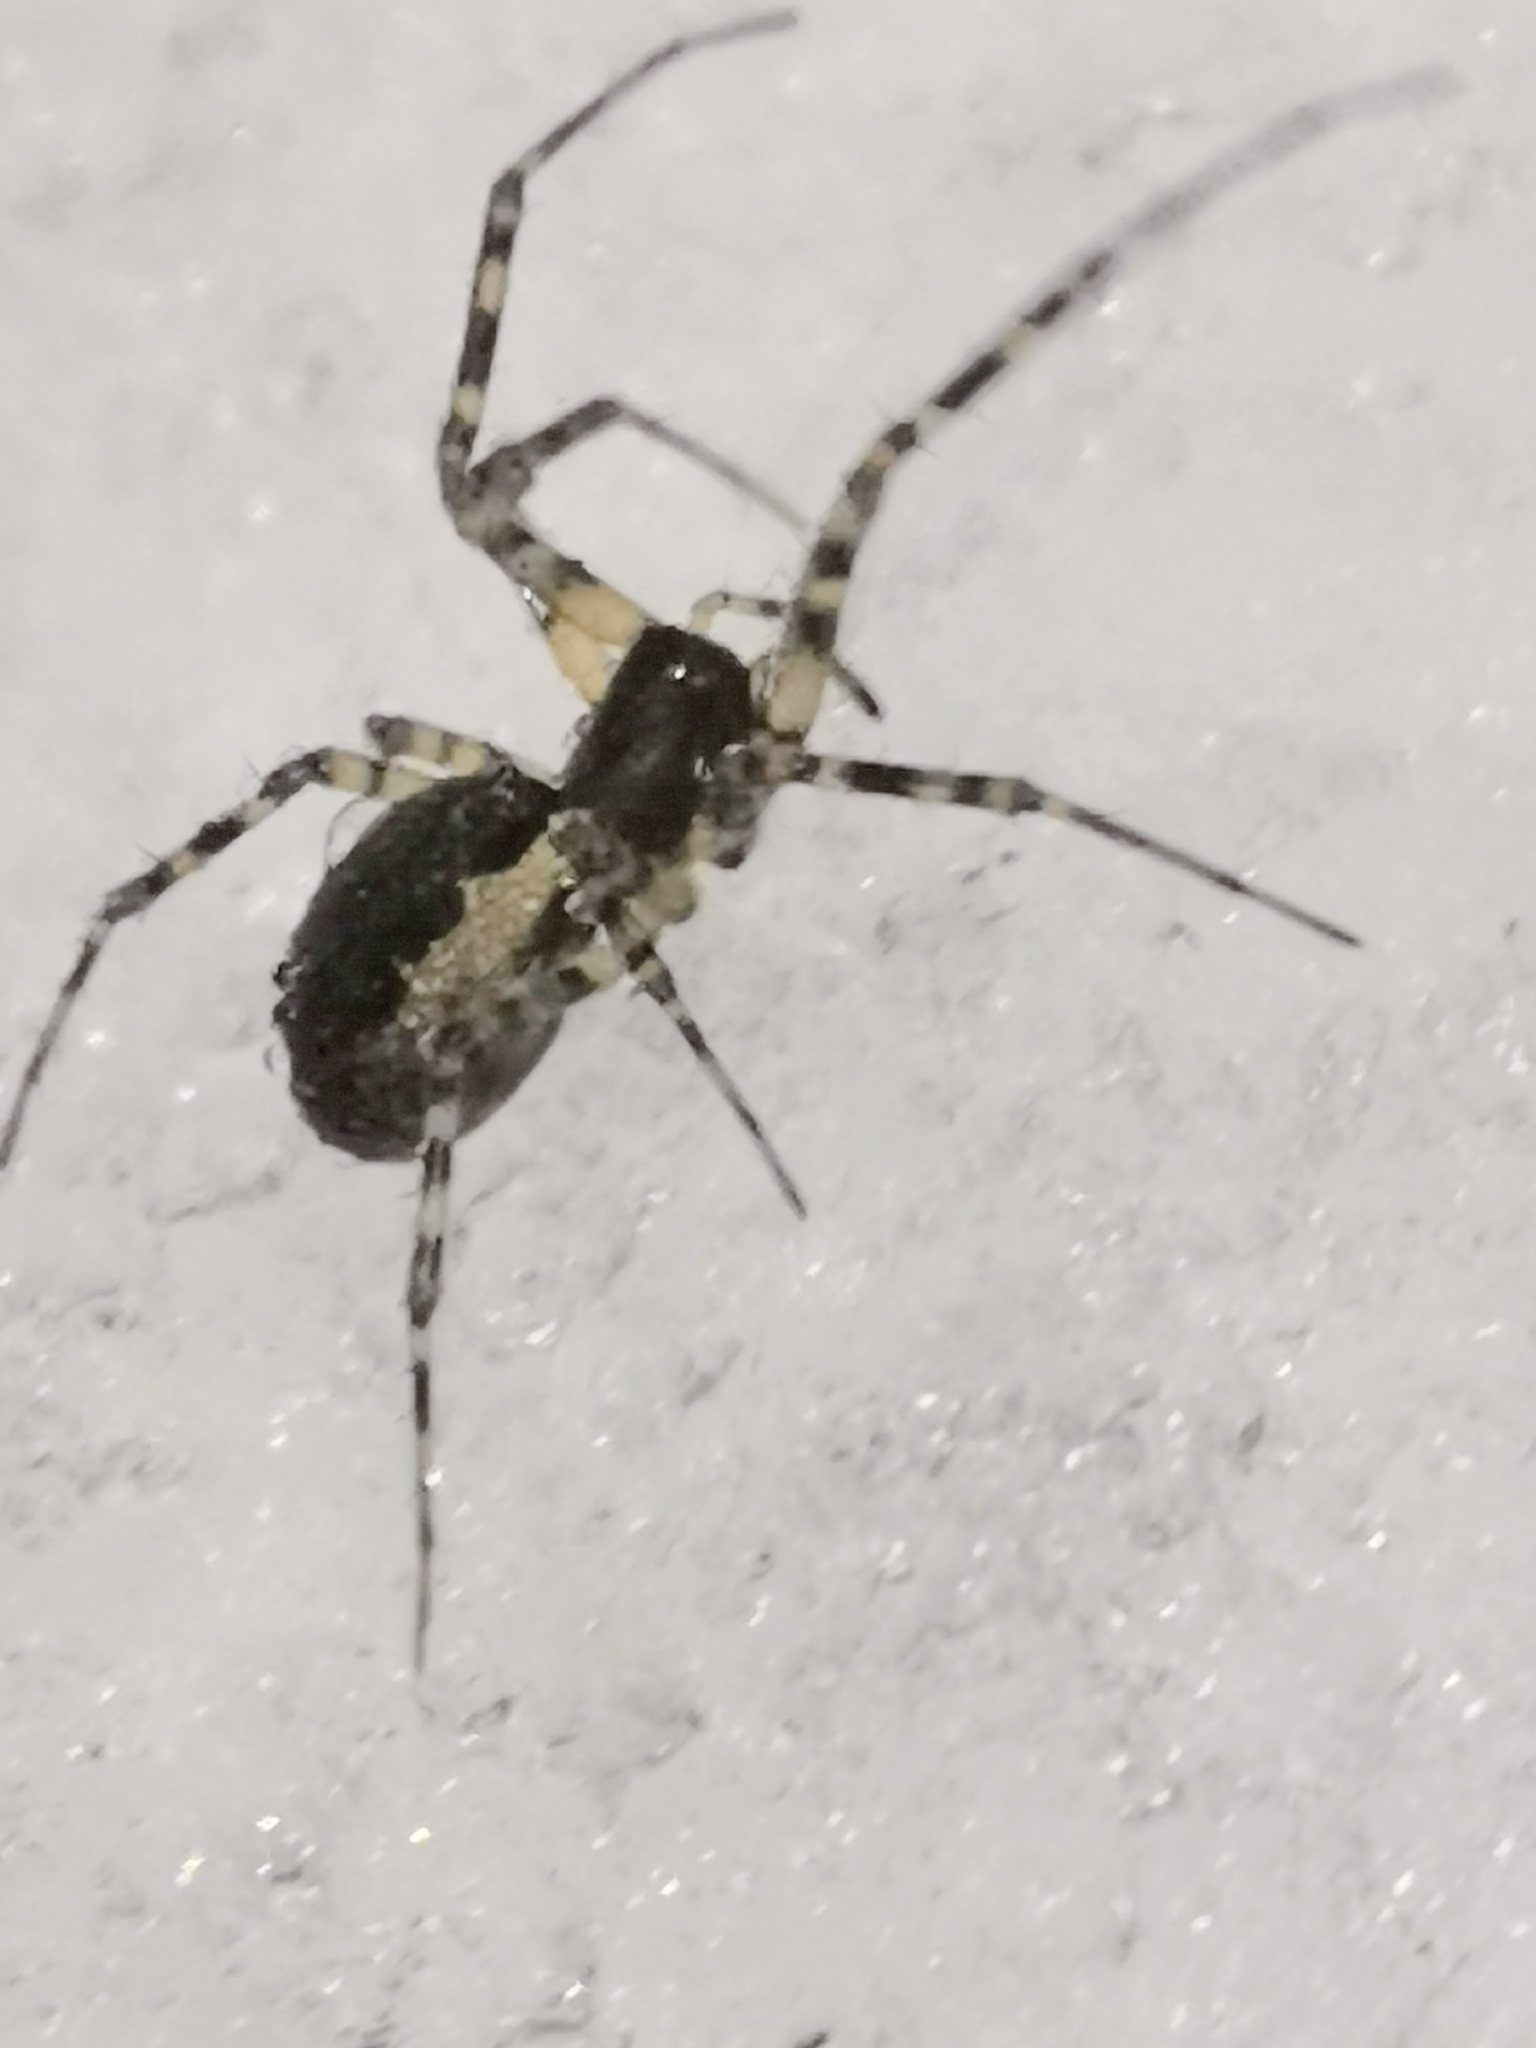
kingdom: Animalia
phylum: Arthropoda
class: Arachnida
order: Araneae
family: Linyphiidae
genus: Neriene
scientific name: Neriene montana
